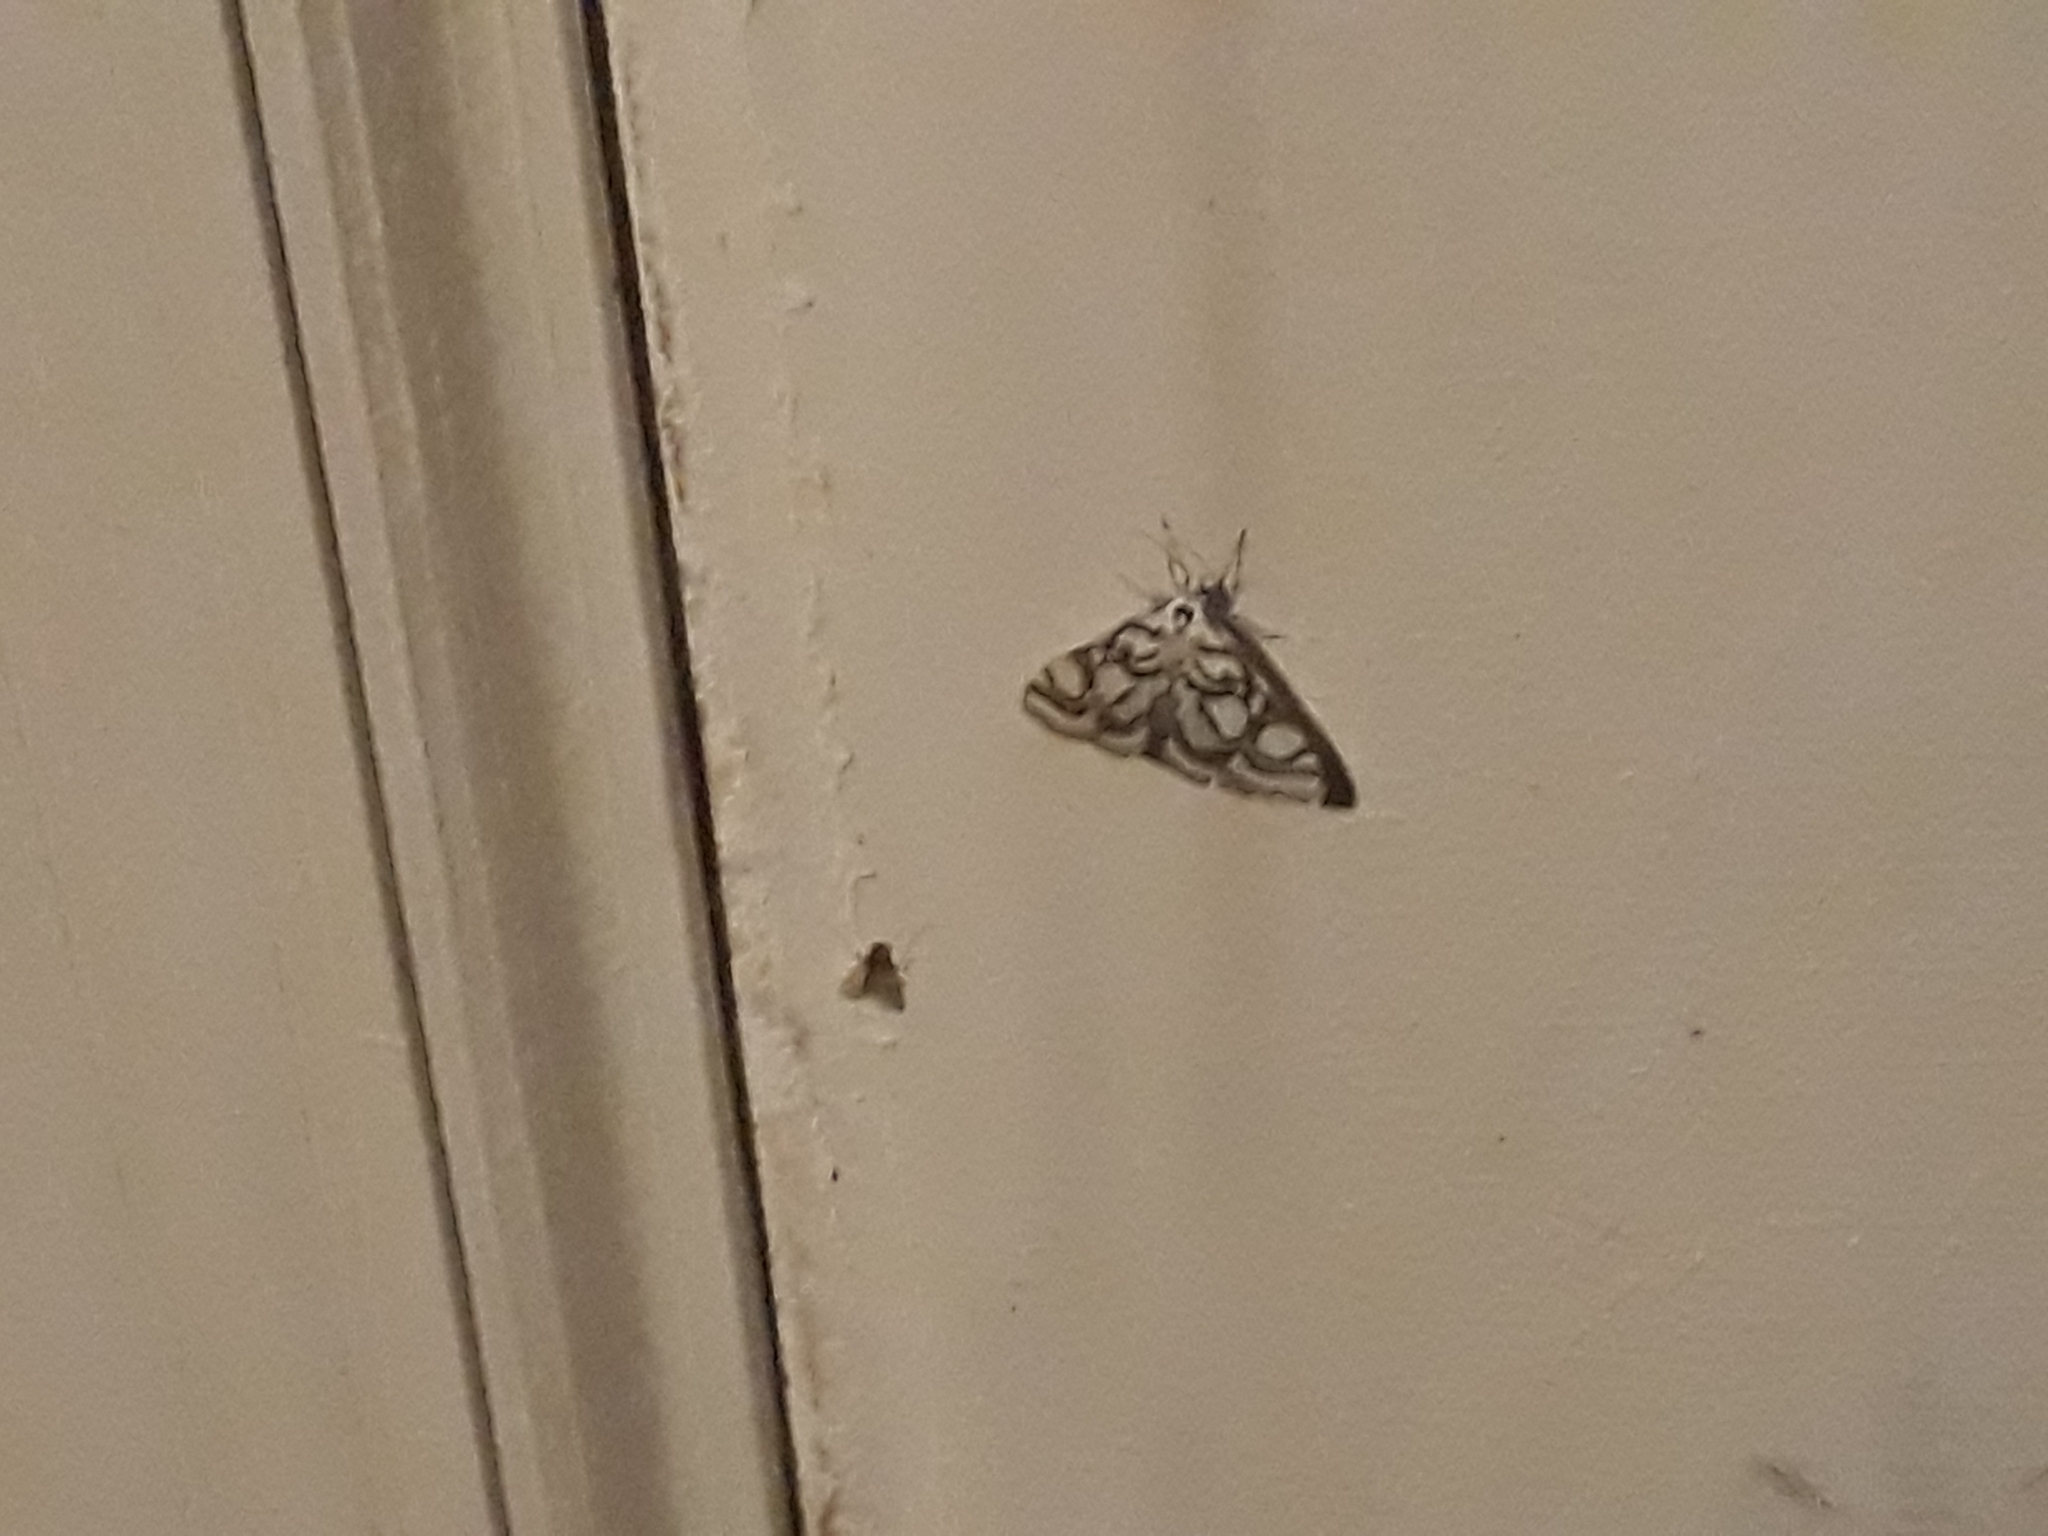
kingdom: Animalia
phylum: Arthropoda
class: Insecta
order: Lepidoptera
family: Crambidae
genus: Nymphula
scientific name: Nymphula nitidulata
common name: Beautiful china mark
